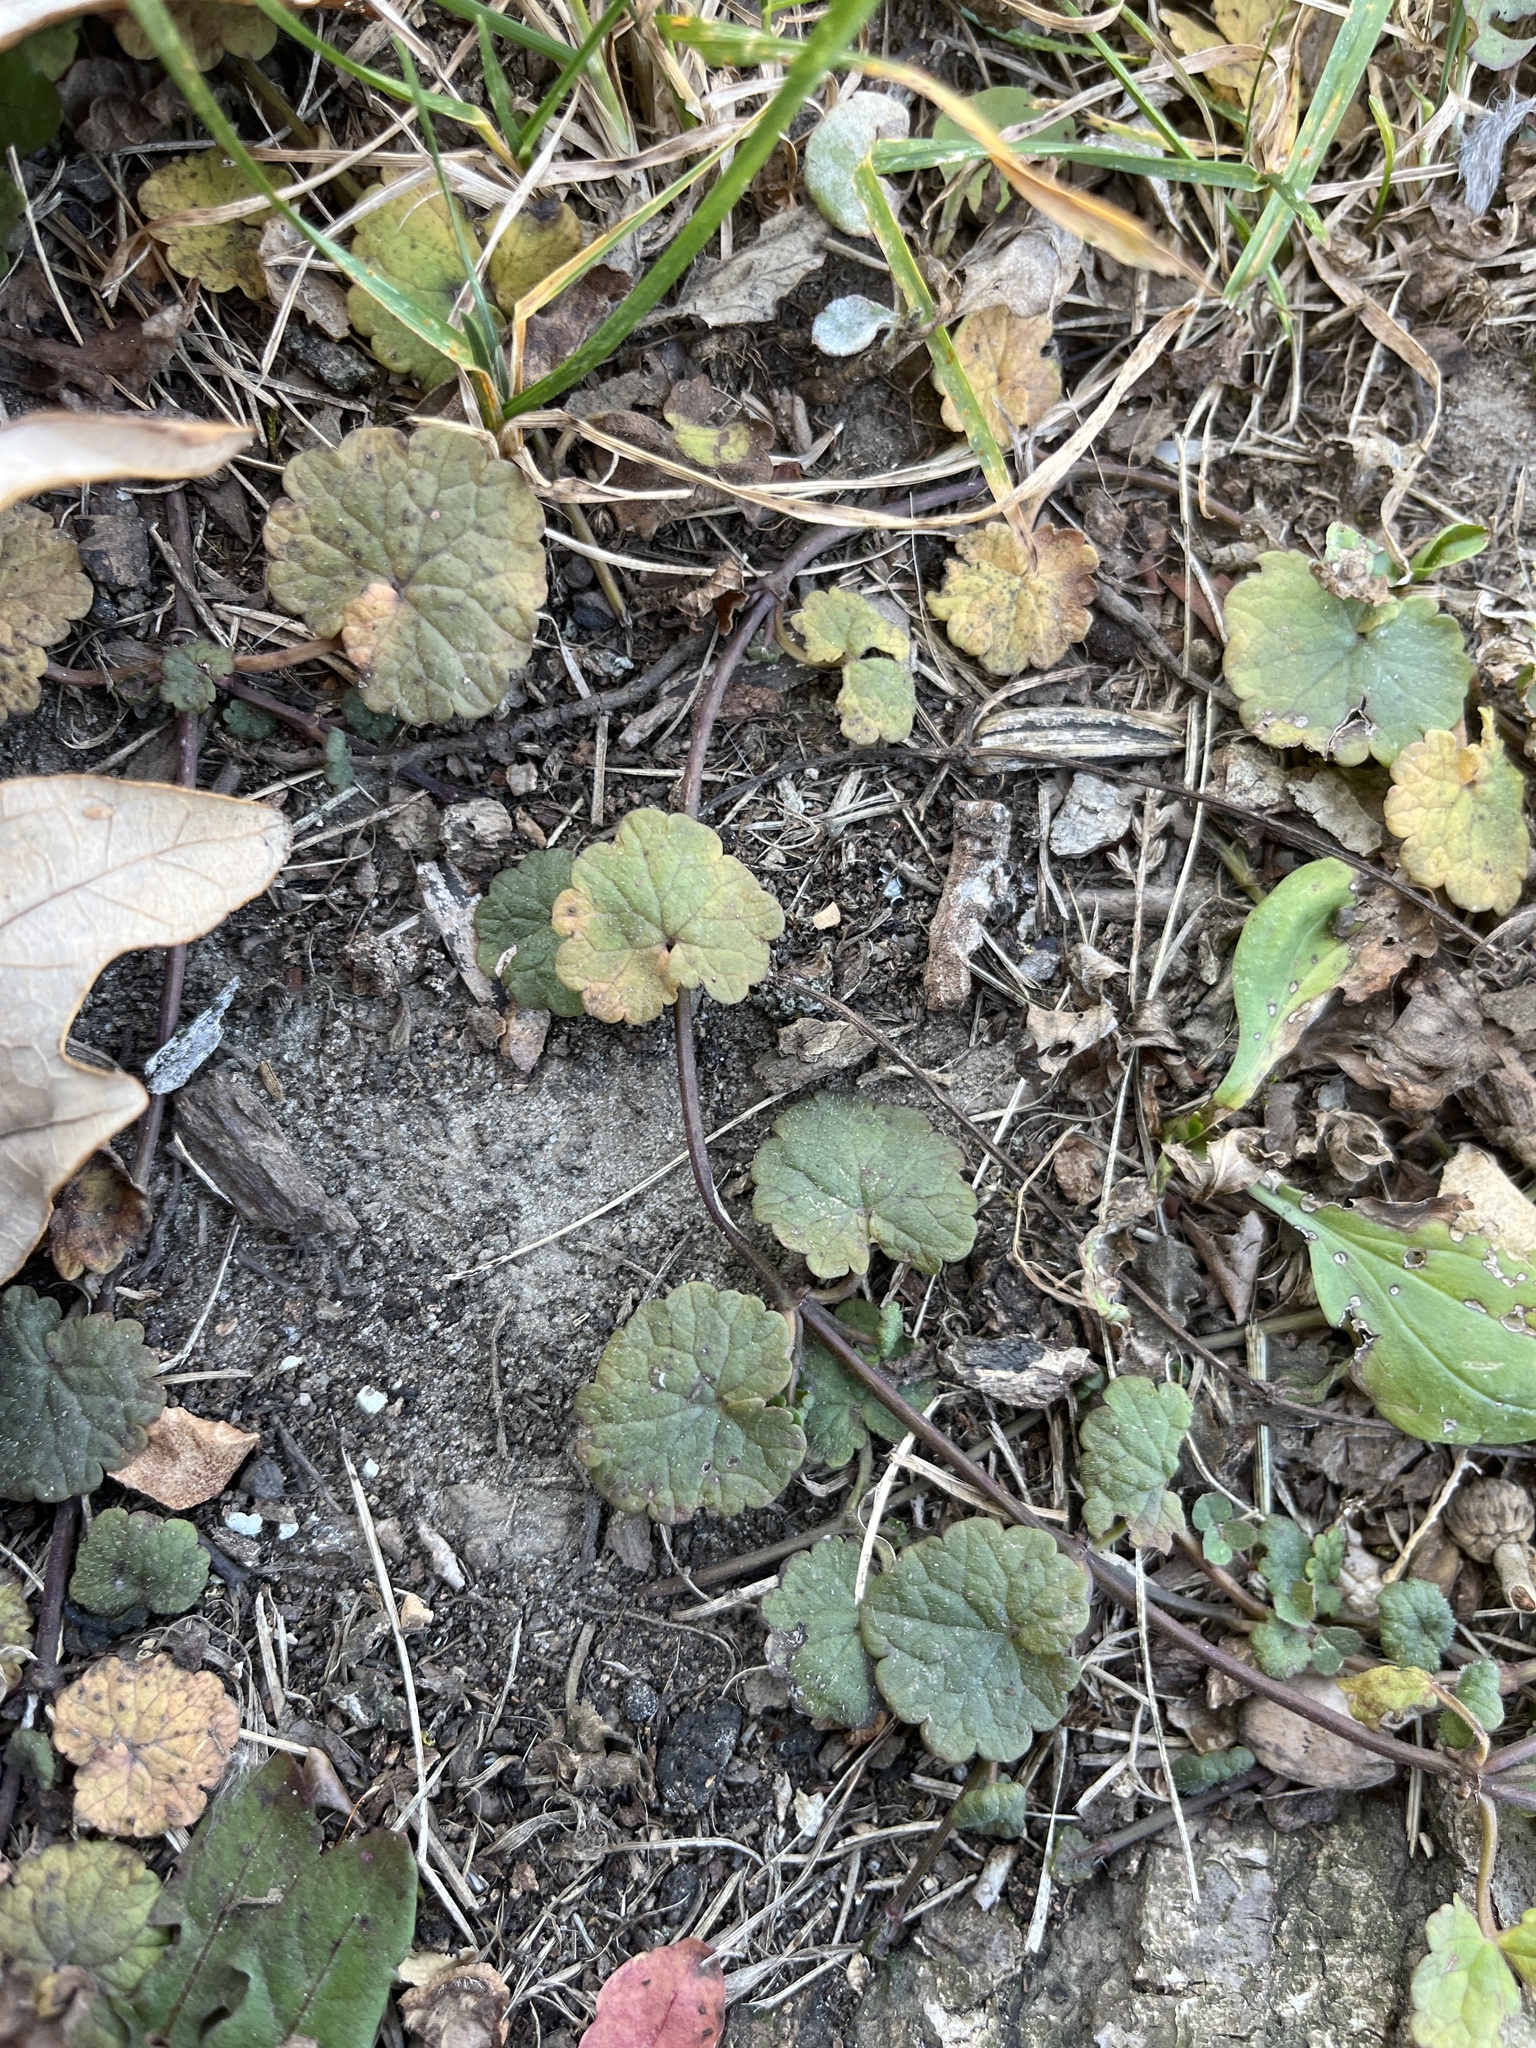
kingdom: Plantae
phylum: Tracheophyta
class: Magnoliopsida
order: Lamiales
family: Lamiaceae
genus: Glechoma
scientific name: Glechoma hederacea
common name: Ground ivy
